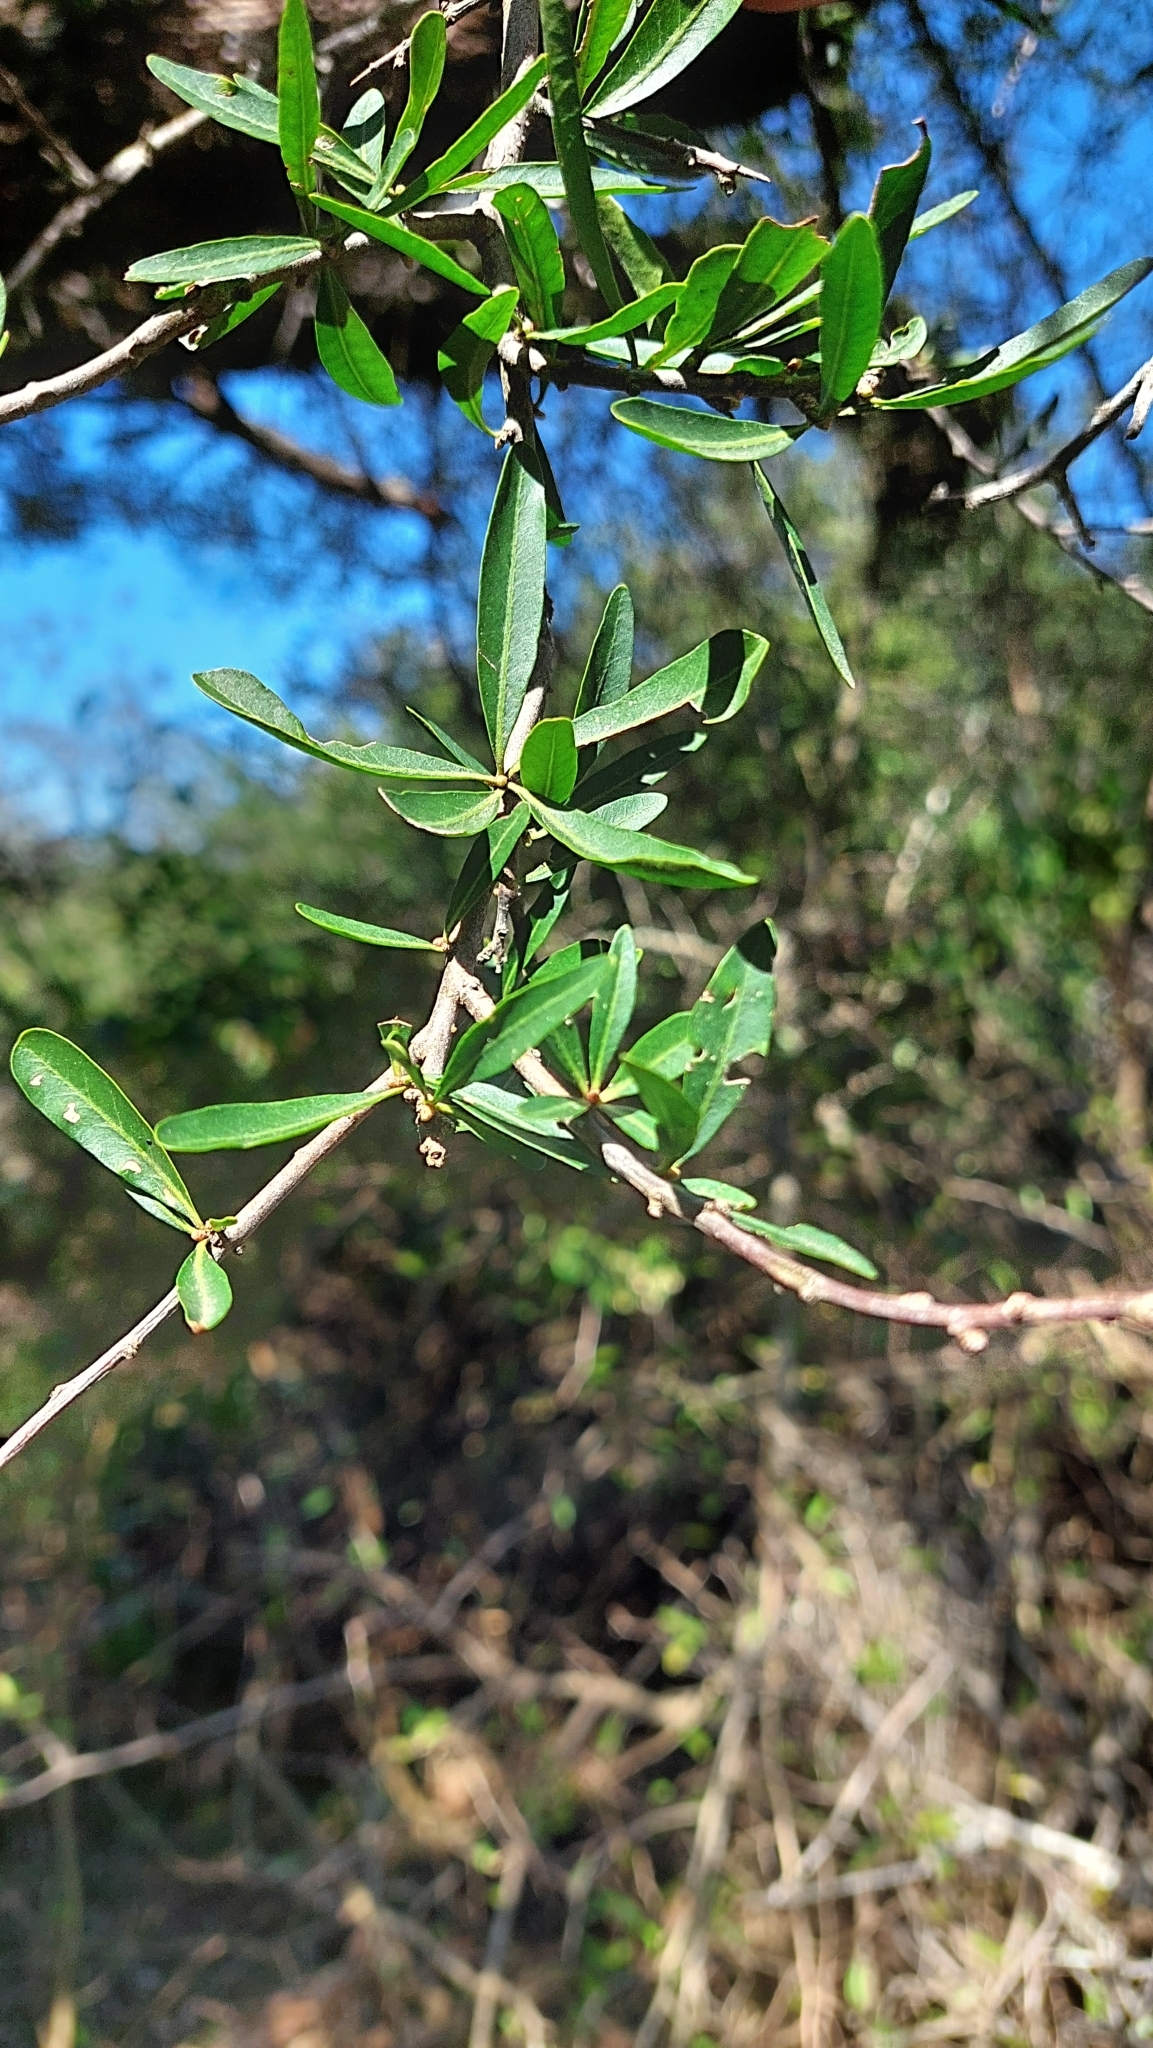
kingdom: Plantae
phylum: Tracheophyta
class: Magnoliopsida
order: Sapindales
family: Anacardiaceae
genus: Schinus
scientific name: Schinus longifolia
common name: Longleaf peppertree
